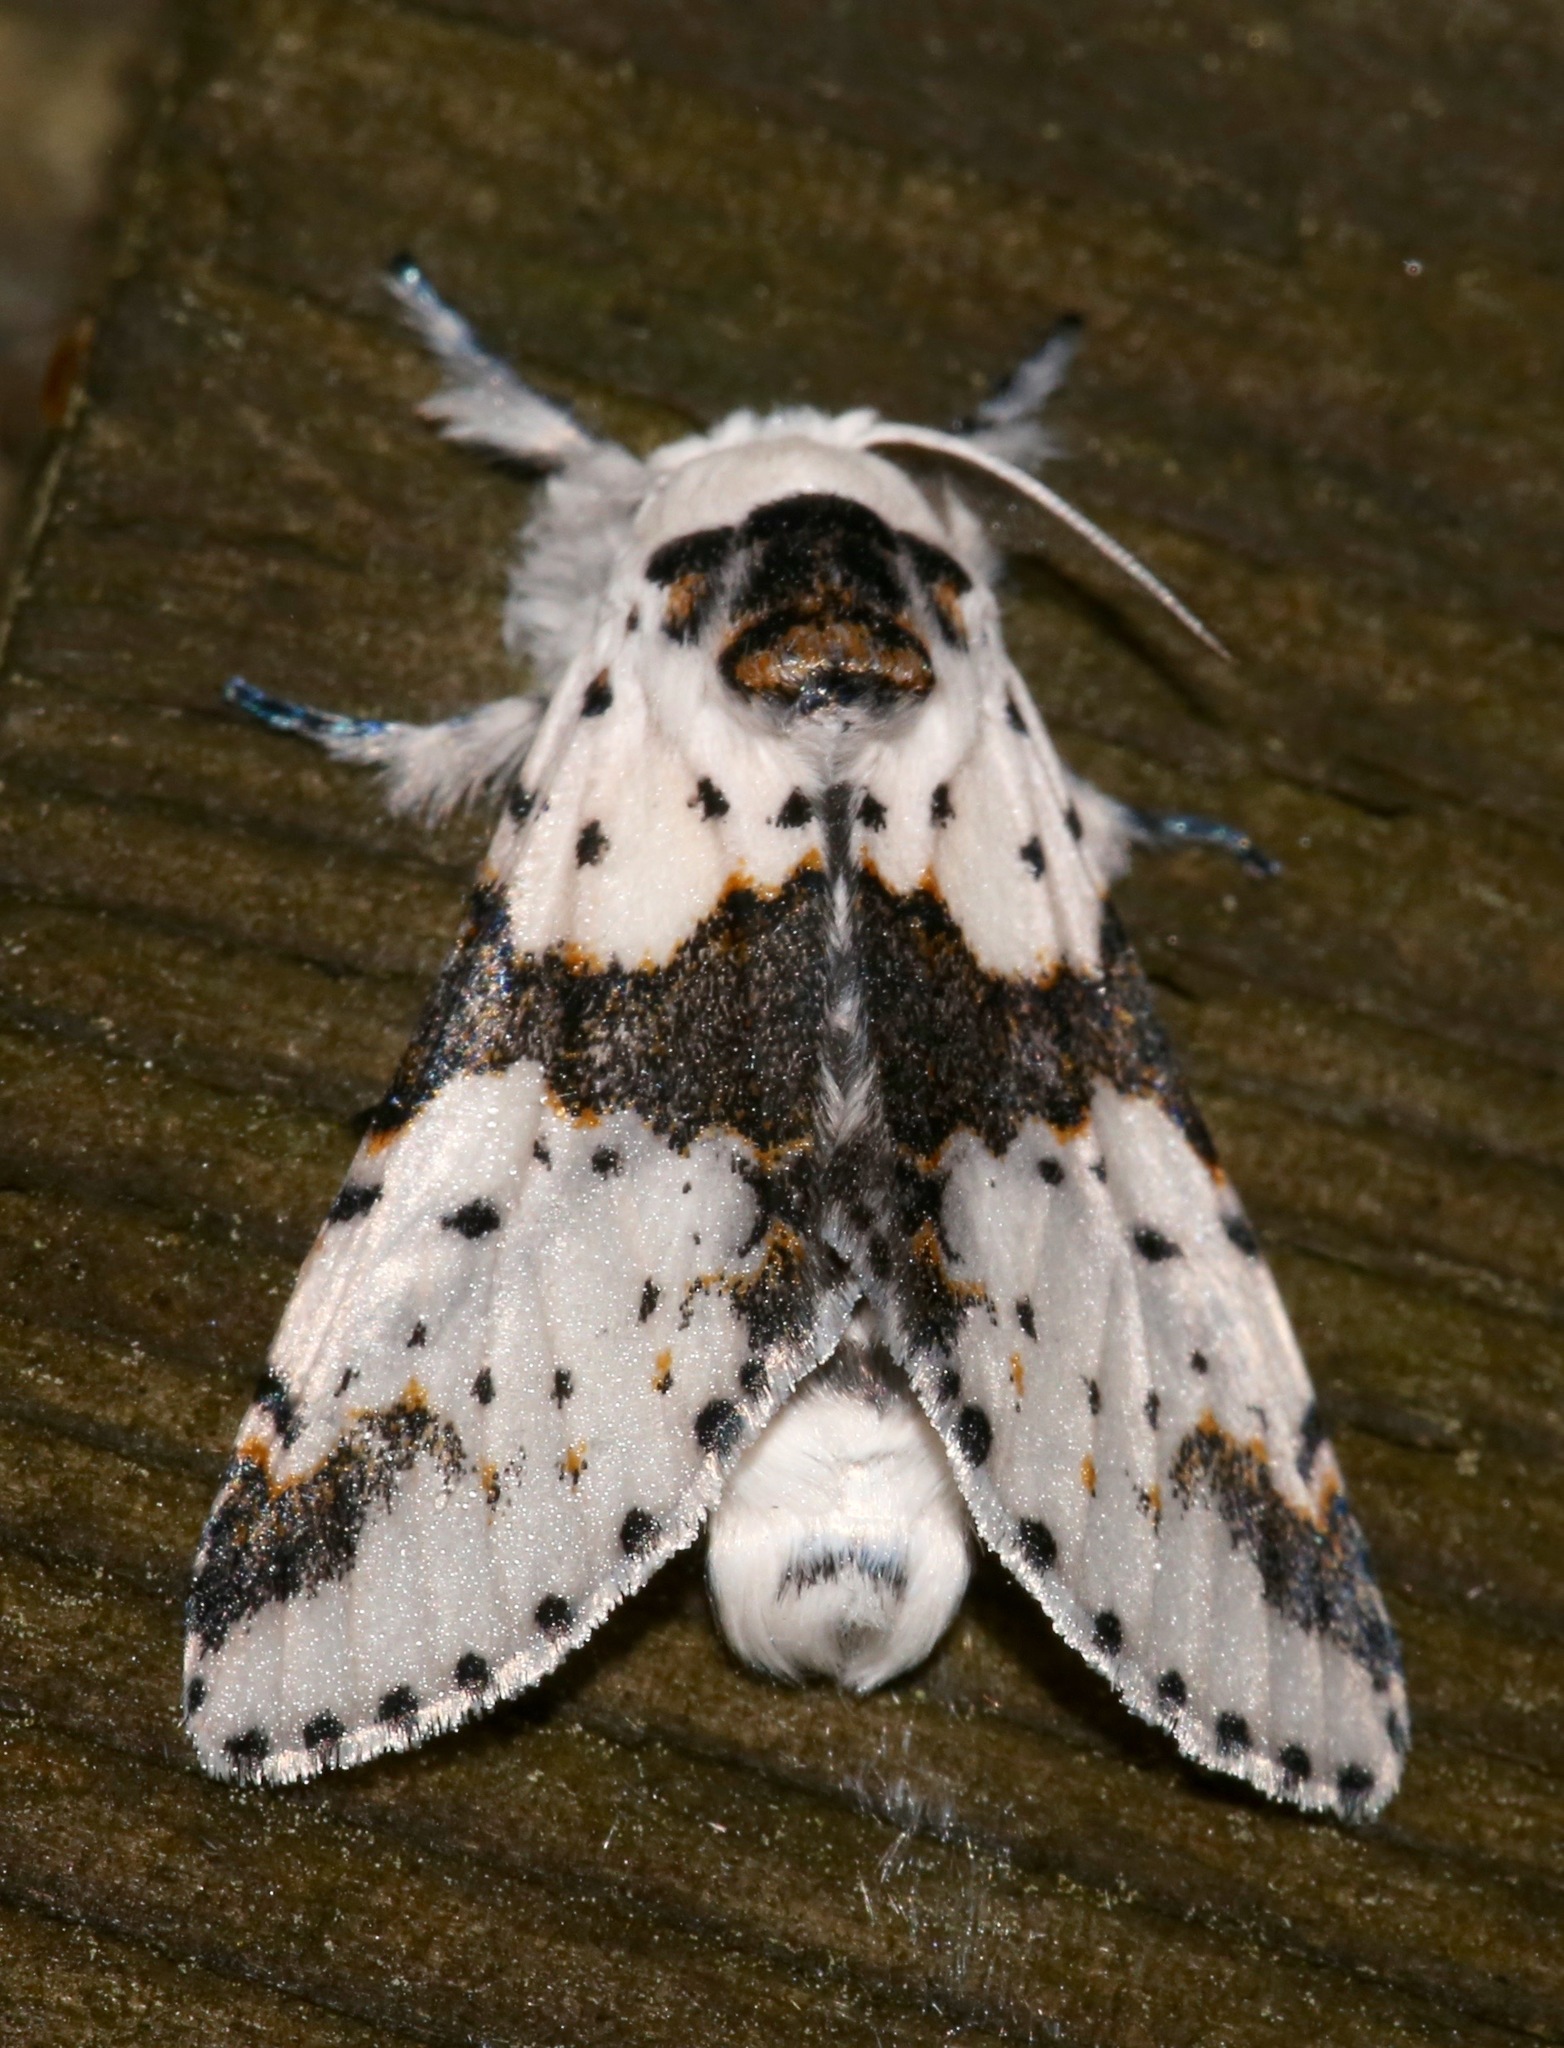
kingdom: Animalia
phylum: Arthropoda
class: Insecta
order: Lepidoptera
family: Notodontidae
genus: Furcula
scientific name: Furcula borealis
